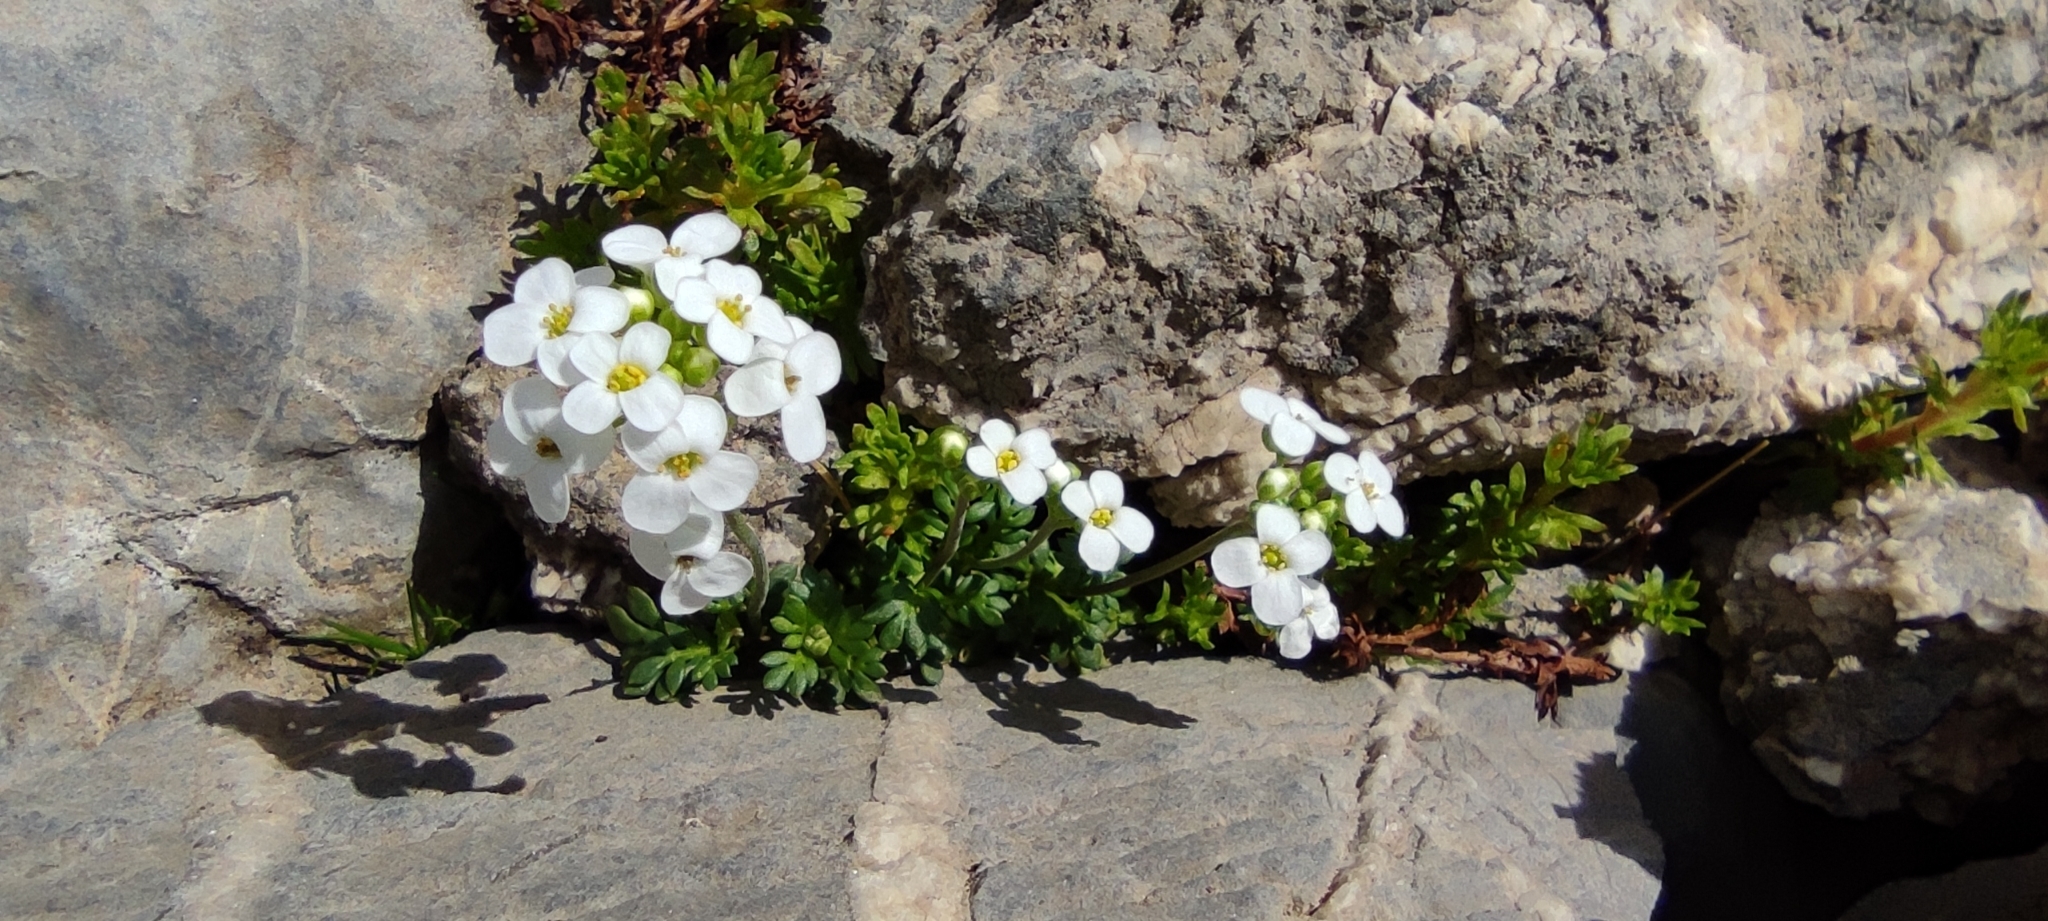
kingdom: Plantae
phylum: Tracheophyta
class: Magnoliopsida
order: Brassicales
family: Brassicaceae
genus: Hornungia
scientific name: Hornungia alpina
